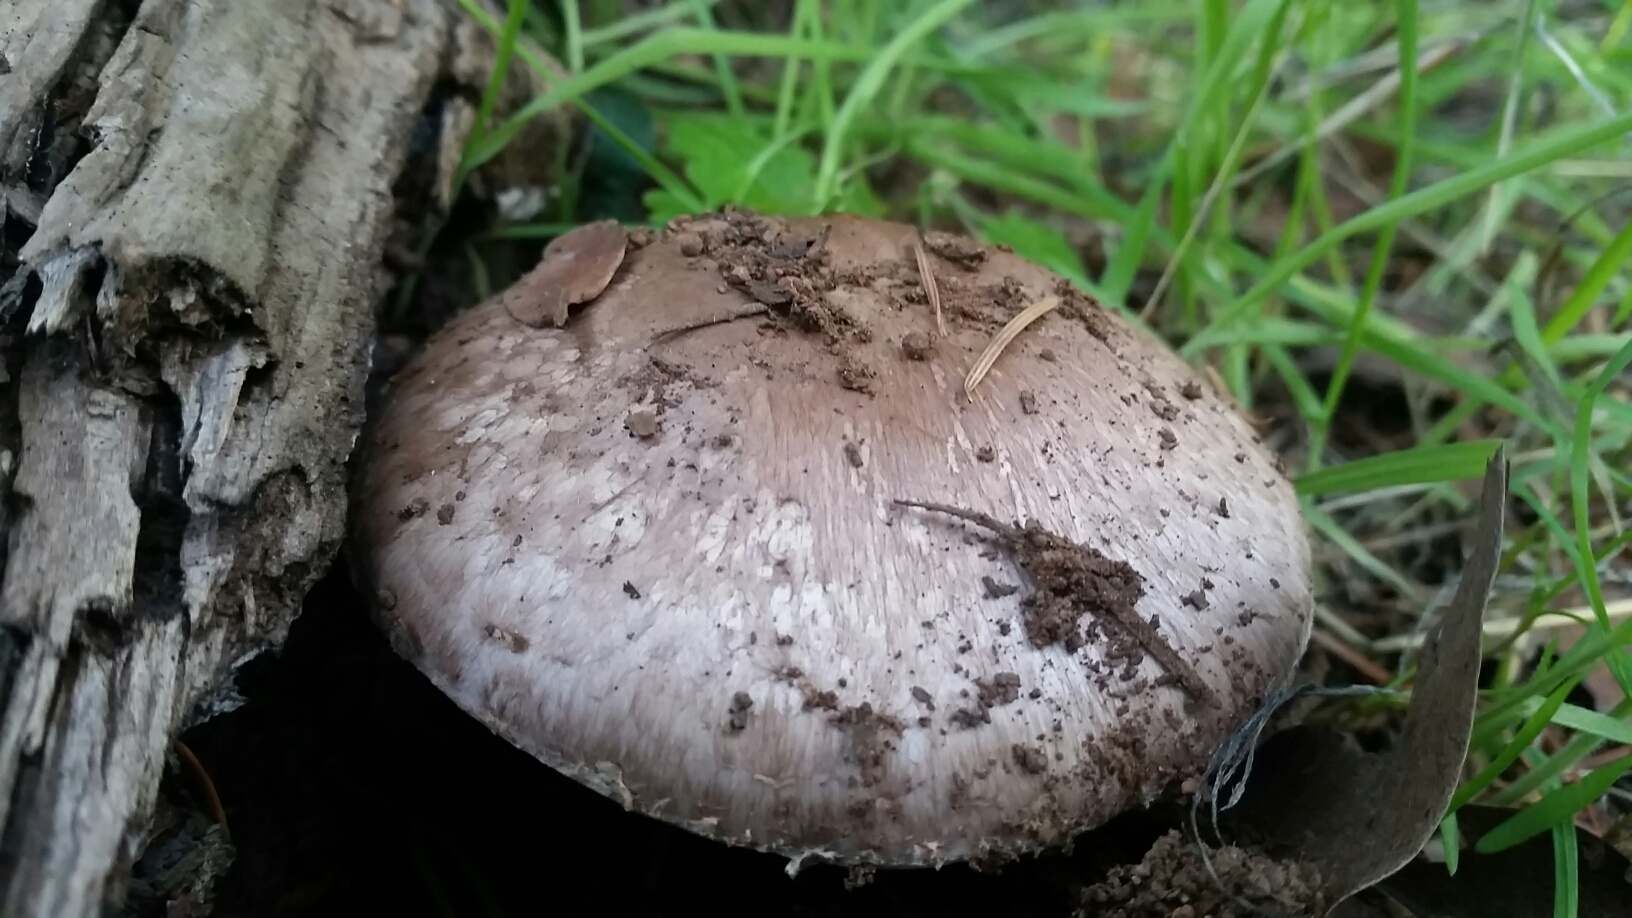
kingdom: Fungi
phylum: Basidiomycota
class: Agaricomycetes
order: Agaricales
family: Agaricaceae
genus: Agaricus
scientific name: Agaricus arorae
